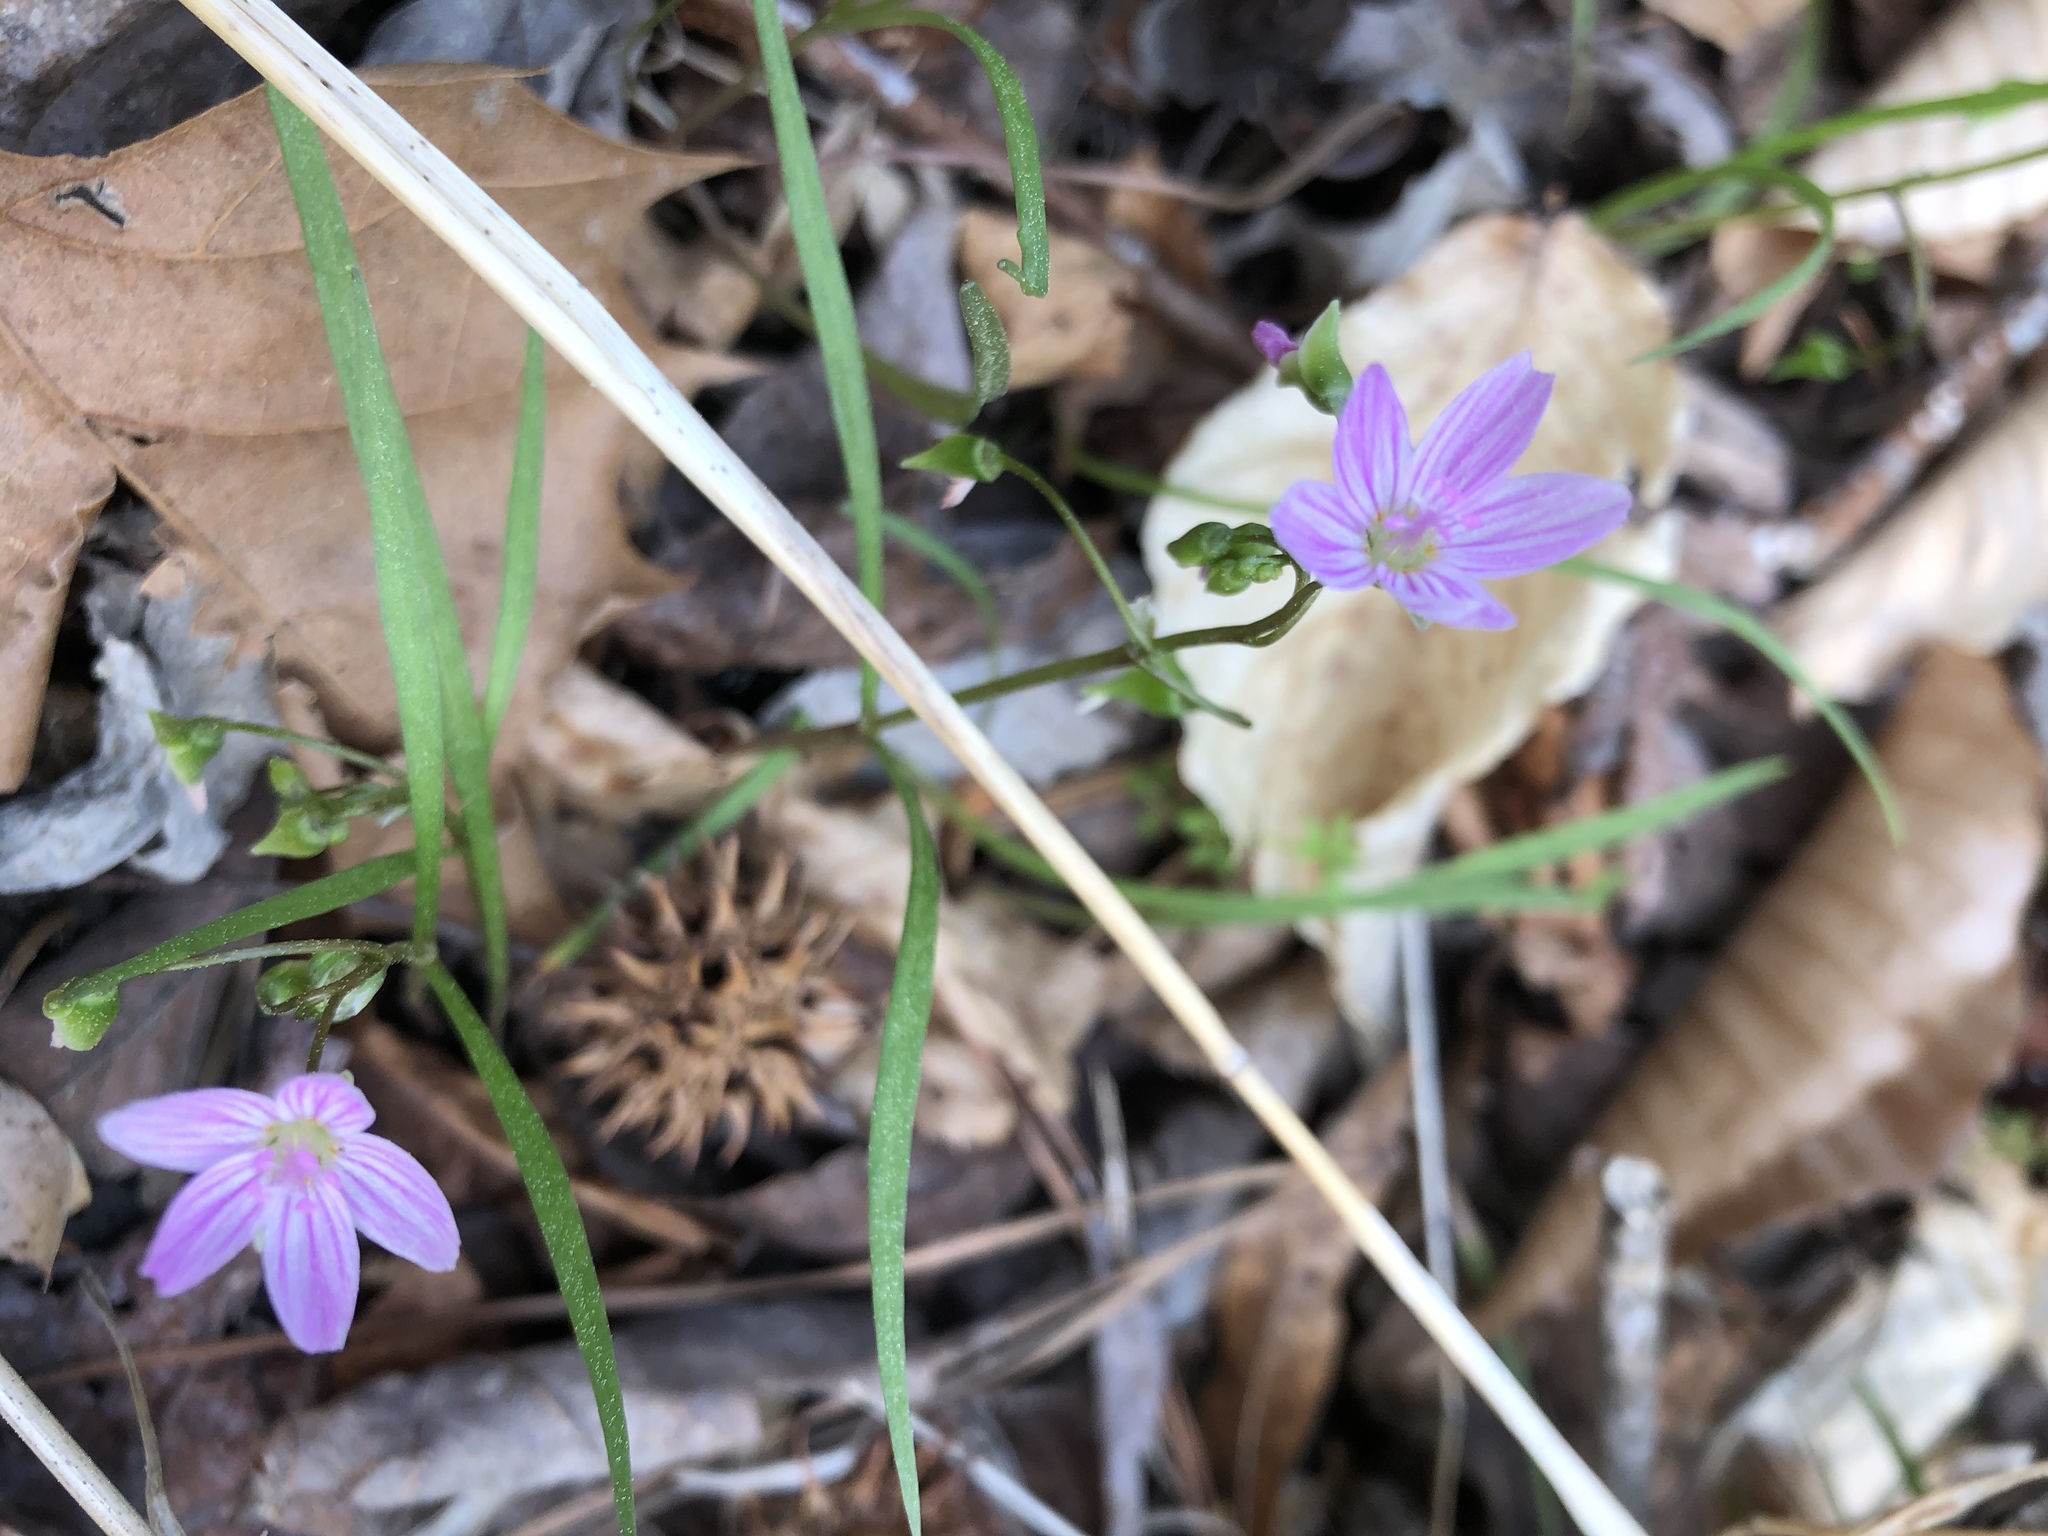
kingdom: Plantae
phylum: Tracheophyta
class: Magnoliopsida
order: Caryophyllales
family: Montiaceae
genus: Claytonia
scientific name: Claytonia virginica
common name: Virginia springbeauty
